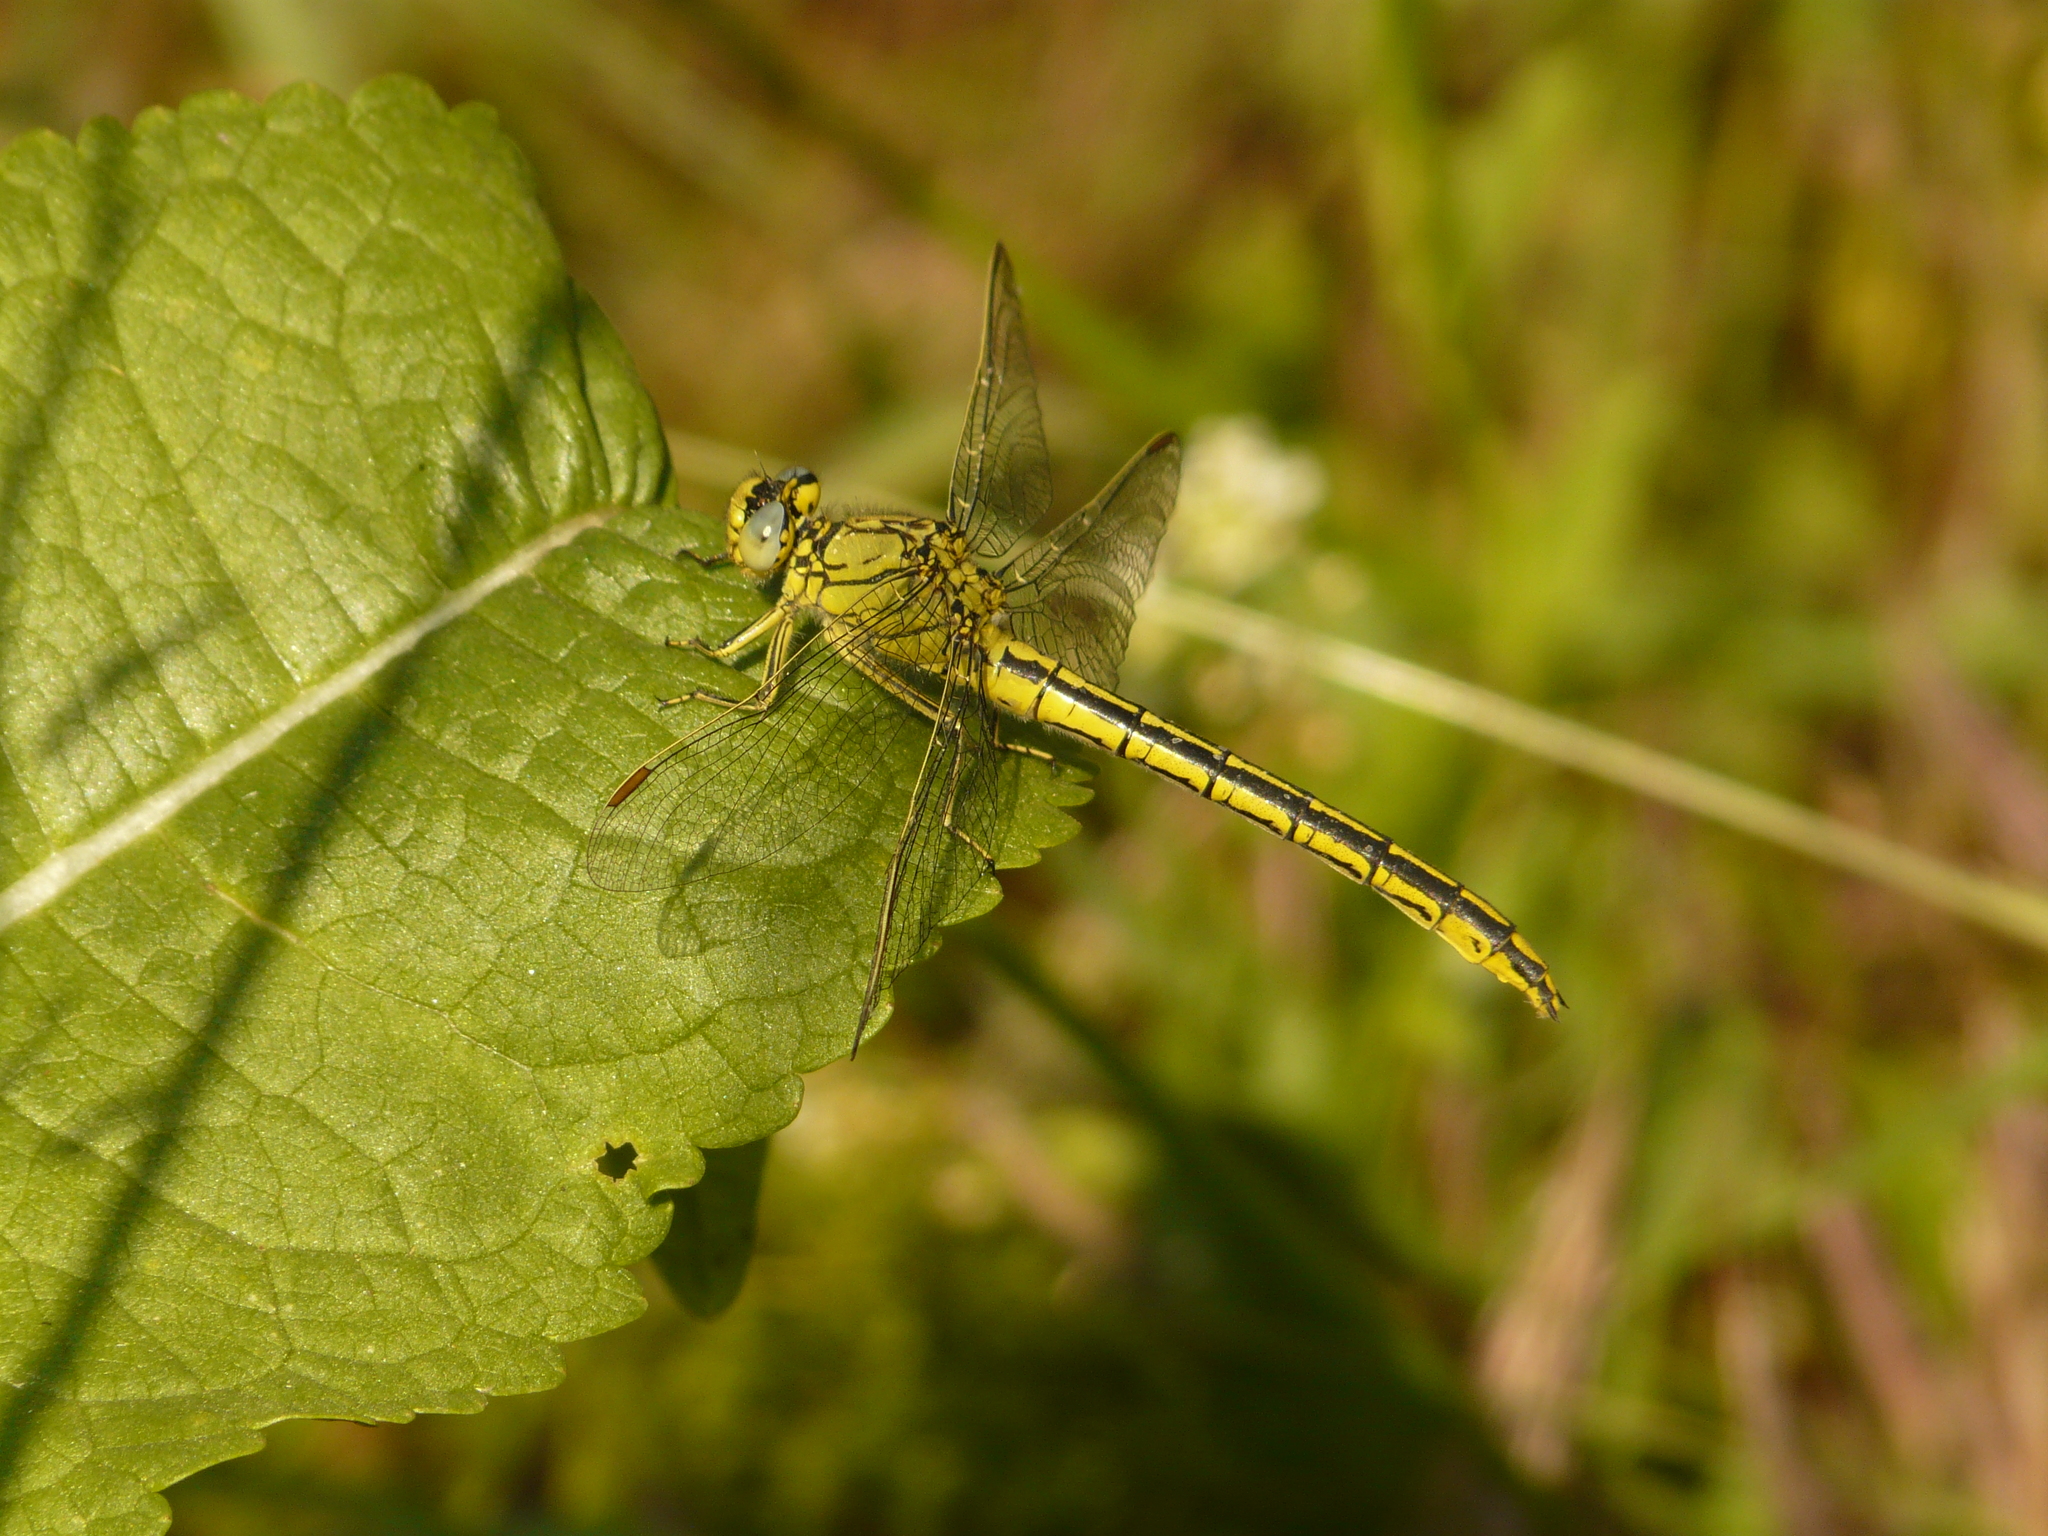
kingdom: Animalia
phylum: Arthropoda
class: Insecta
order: Odonata
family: Gomphidae
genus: Gomphus
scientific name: Gomphus pulchellus
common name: Western clubtail
